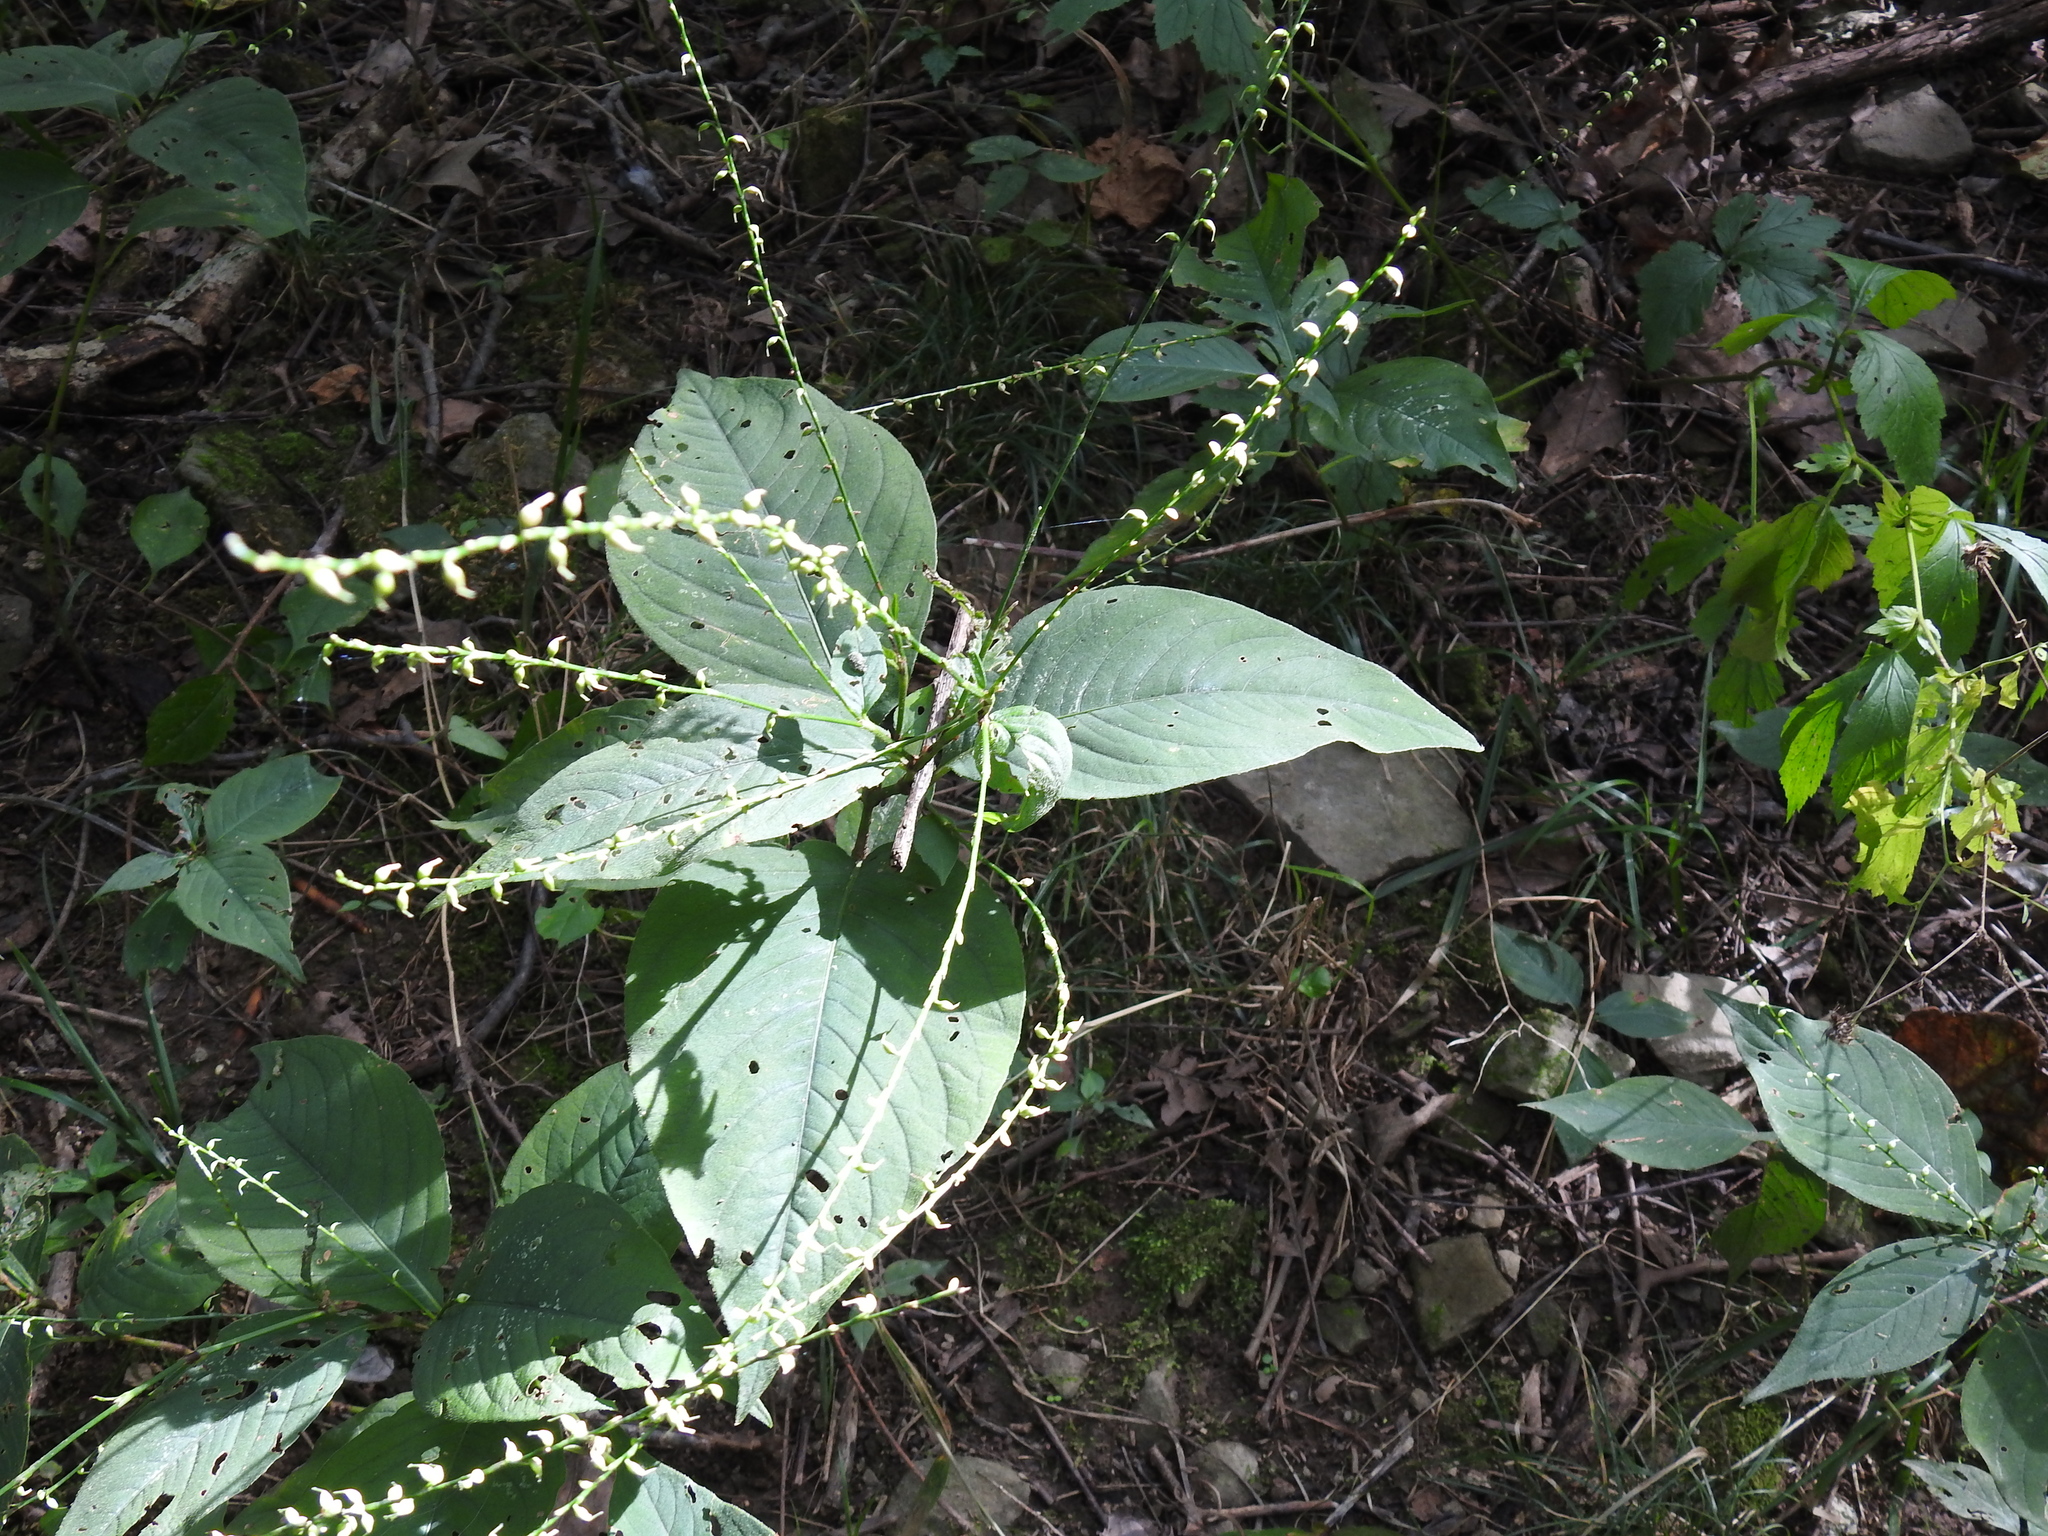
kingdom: Plantae
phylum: Tracheophyta
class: Magnoliopsida
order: Caryophyllales
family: Polygonaceae
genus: Persicaria
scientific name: Persicaria virginiana
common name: Jumpseed
